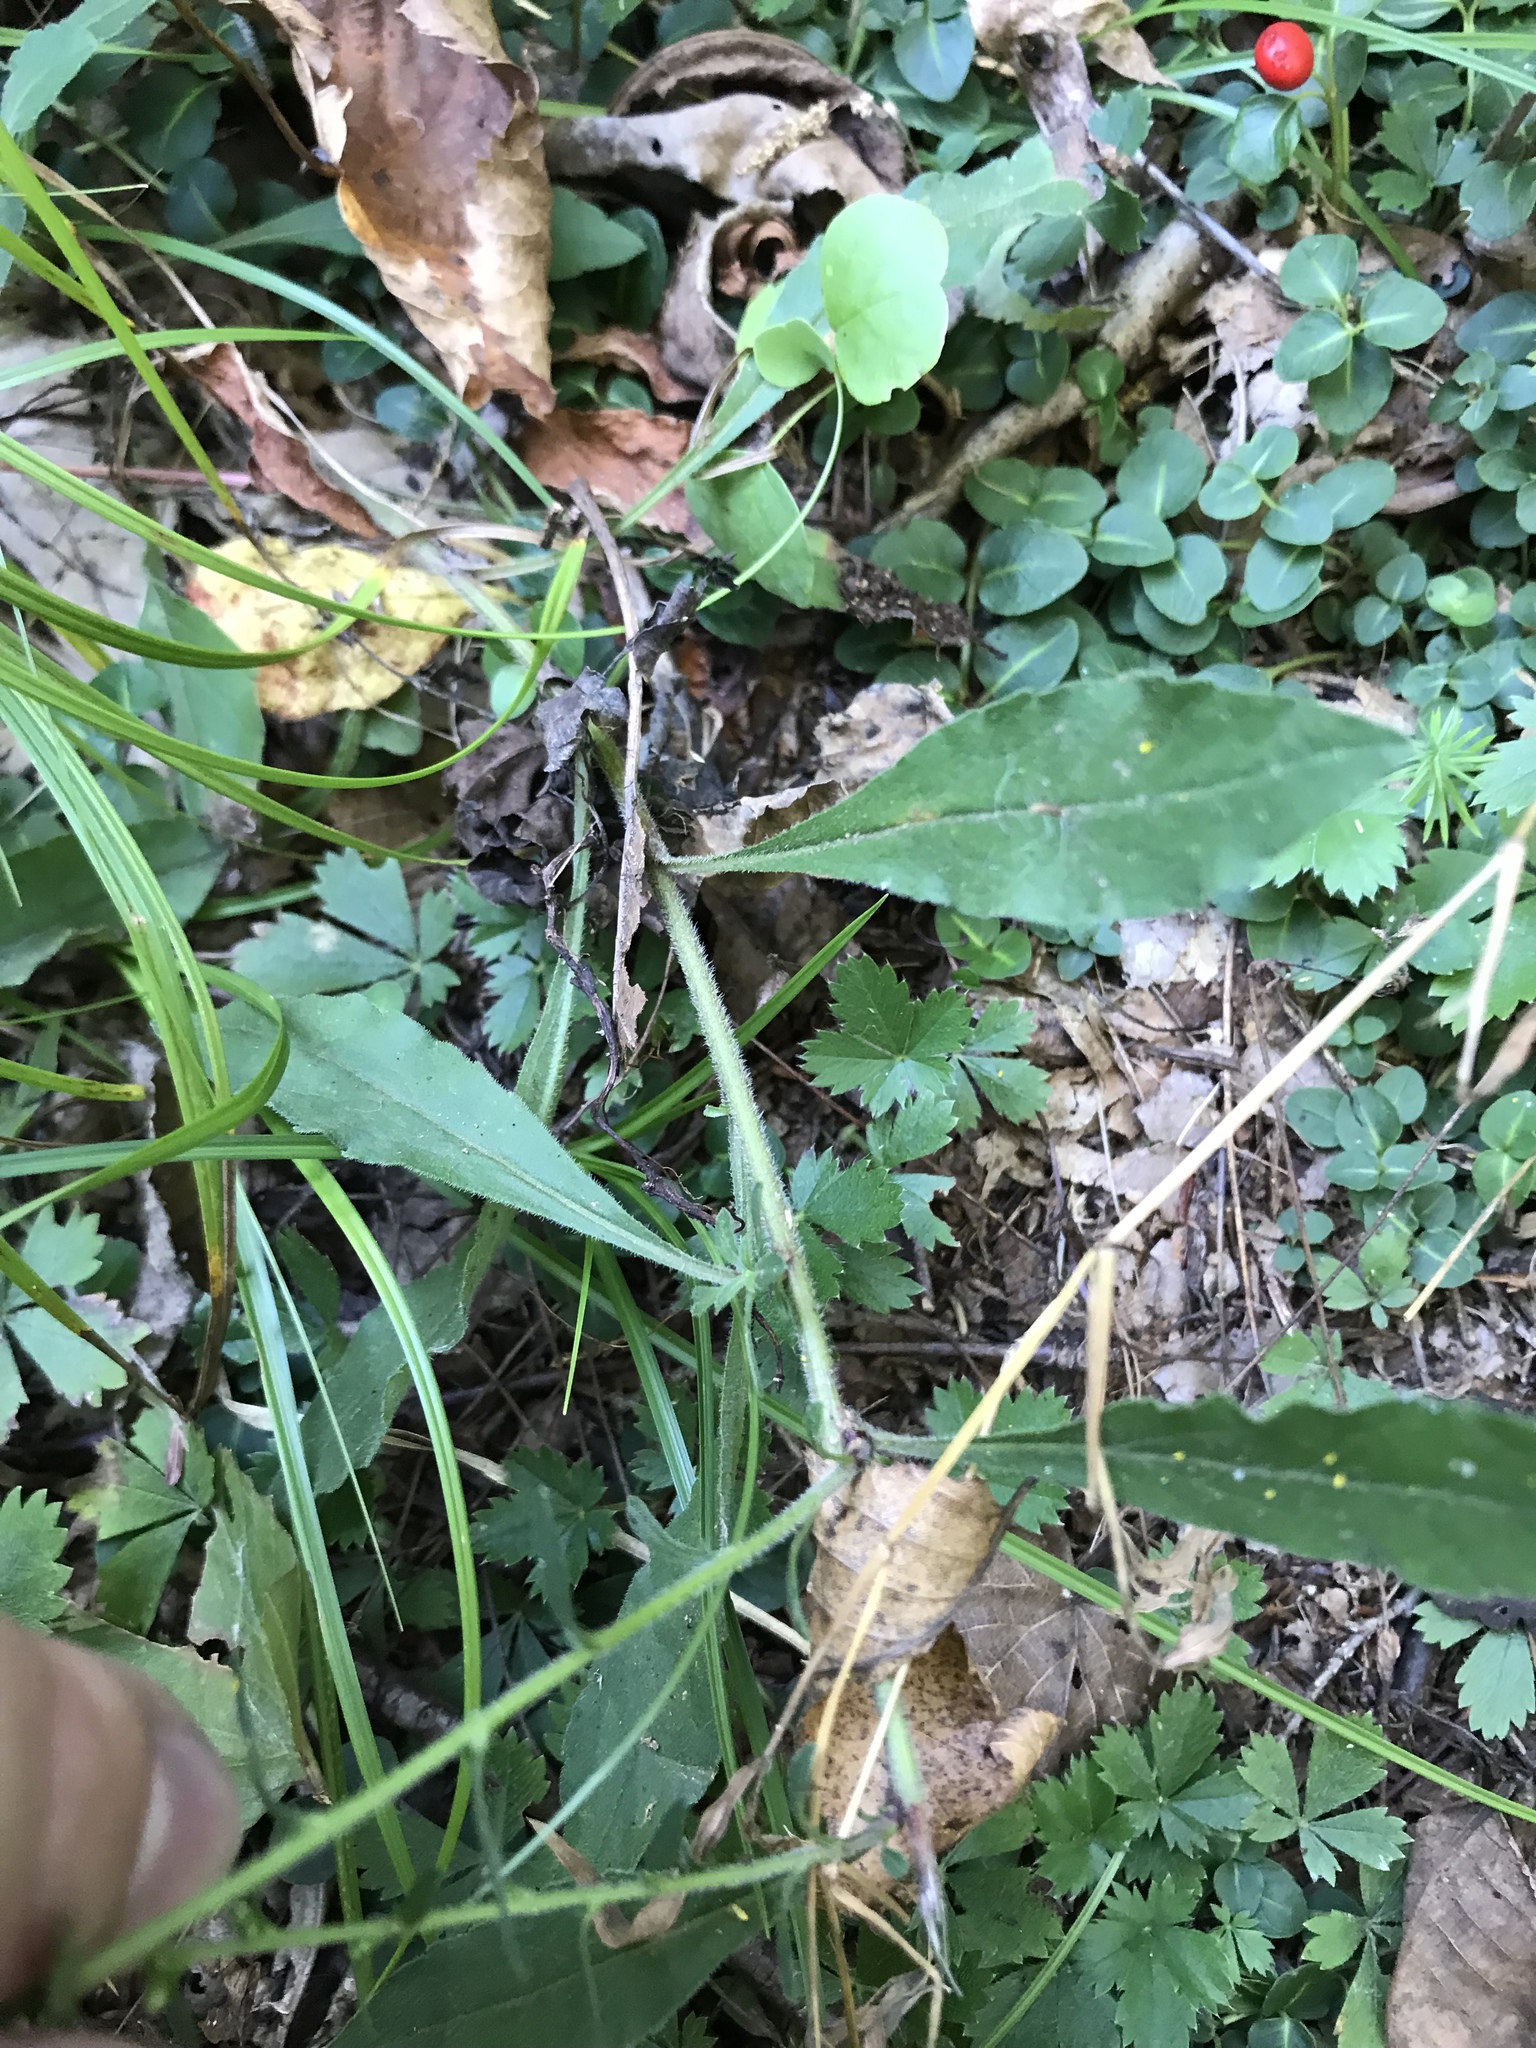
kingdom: Plantae
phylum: Tracheophyta
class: Magnoliopsida
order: Asterales
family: Asteraceae
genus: Solidago
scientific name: Solidago bicolor
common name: Silverrod
